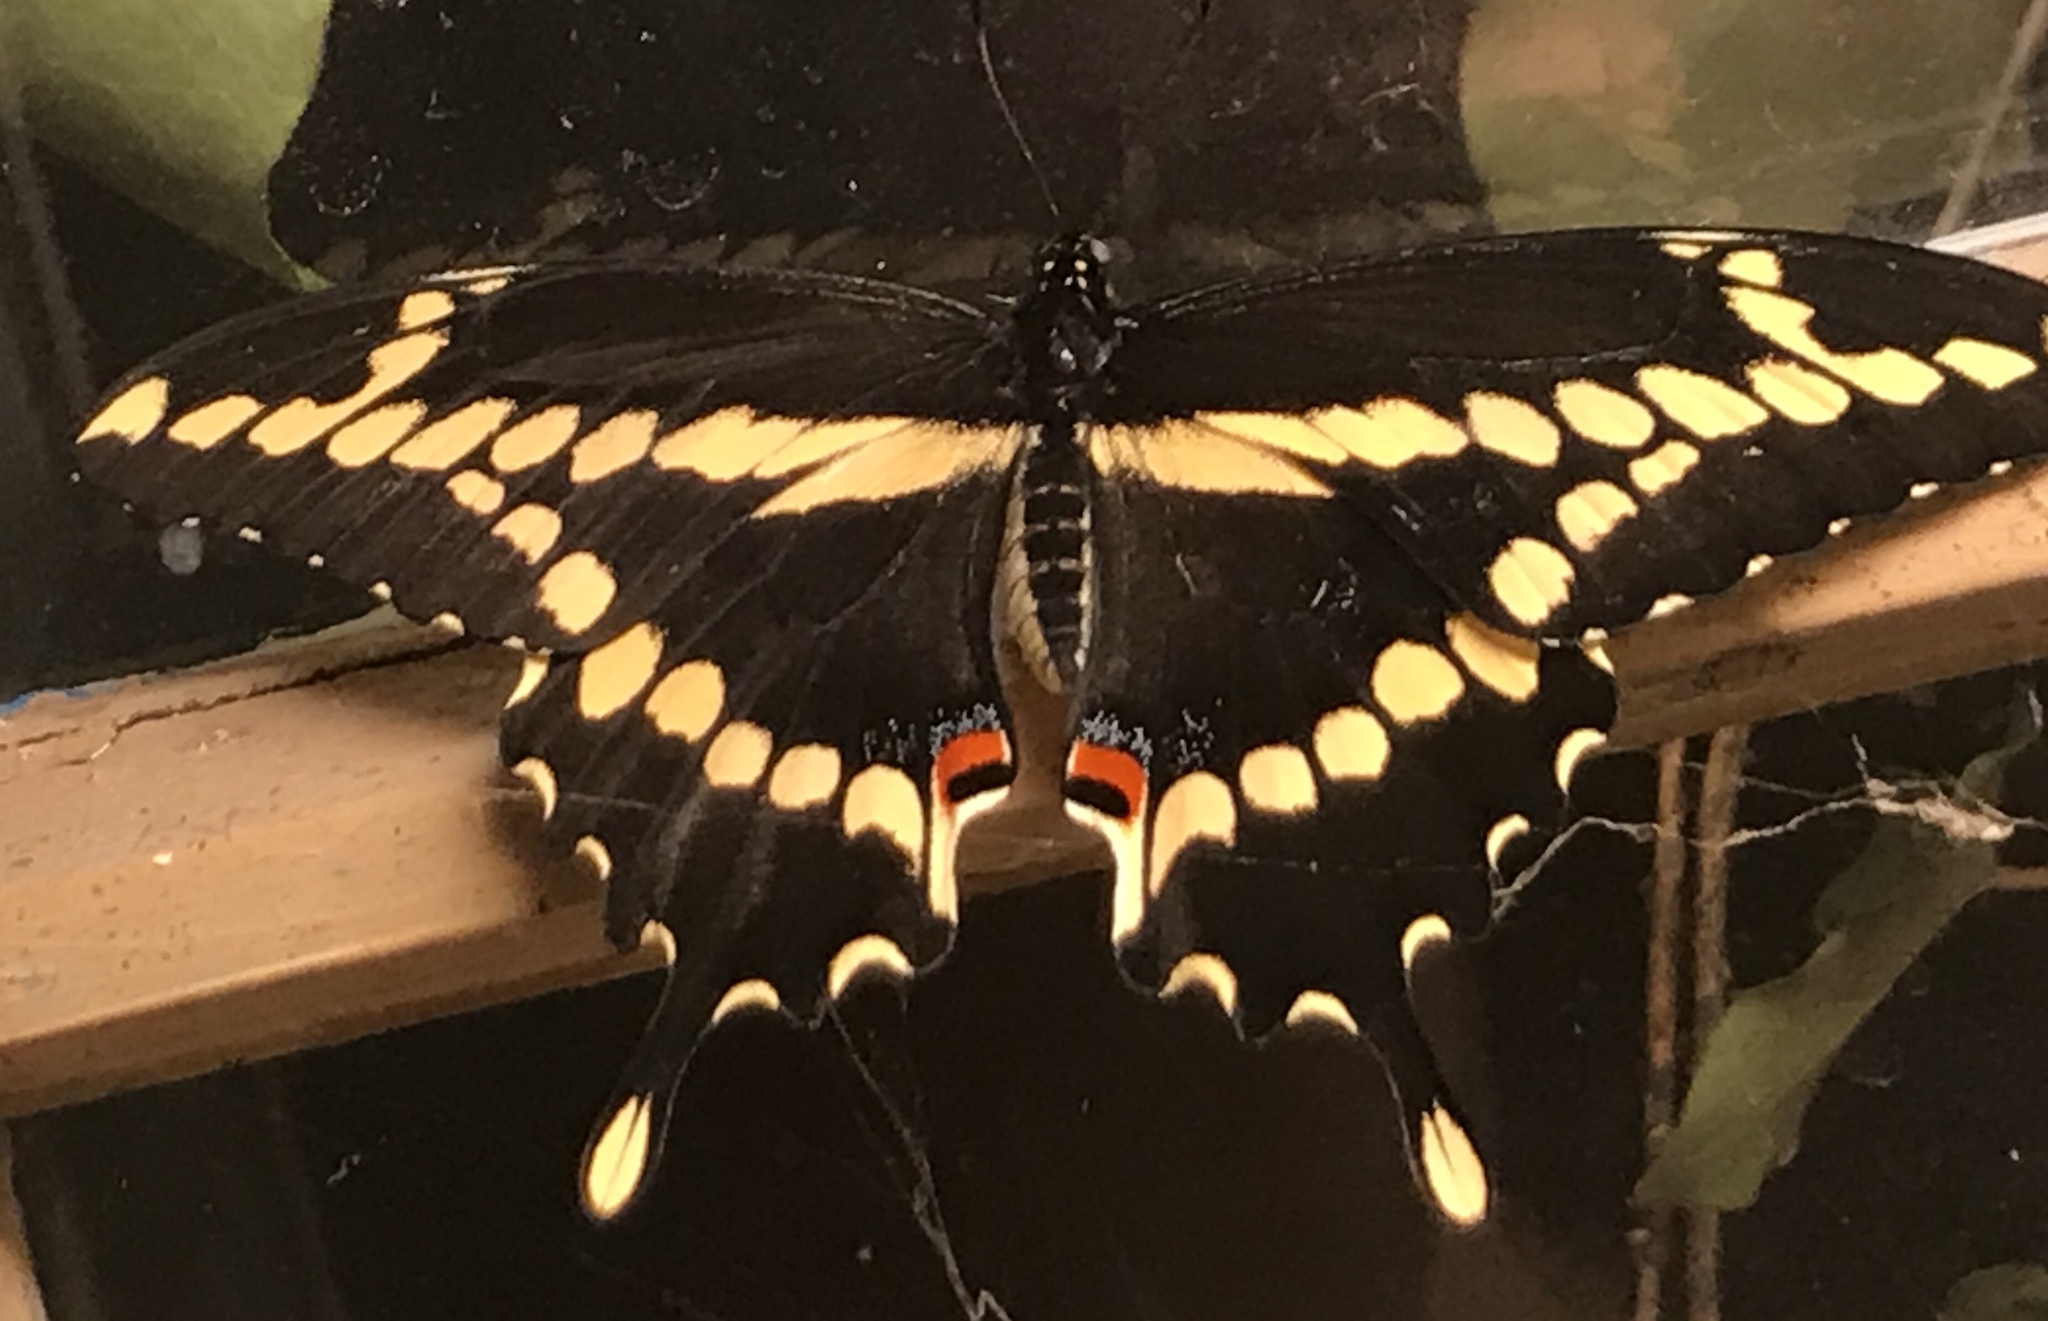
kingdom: Animalia
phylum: Arthropoda
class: Insecta
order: Lepidoptera
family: Papilionidae
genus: Papilio
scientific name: Papilio cresphontes
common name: Giant swallowtail
